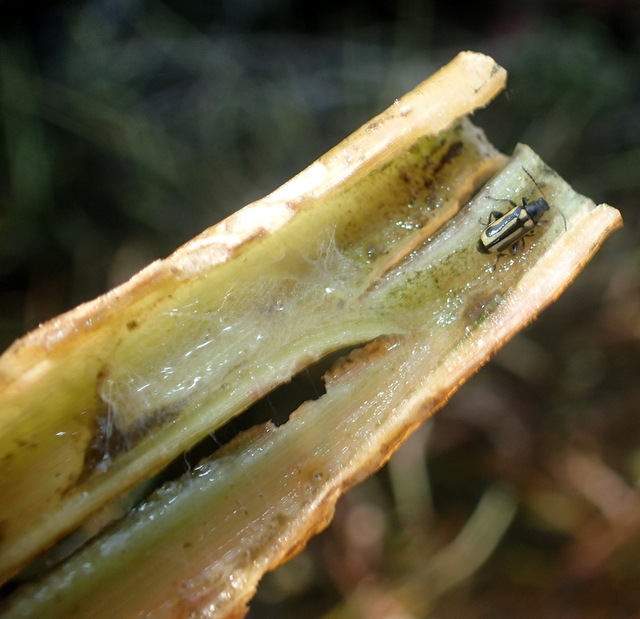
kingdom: Animalia
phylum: Arthropoda
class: Insecta
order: Coleoptera
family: Chrysomelidae
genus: Agasicles
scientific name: Agasicles hygrophila
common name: Alligatorweed flea beetle
